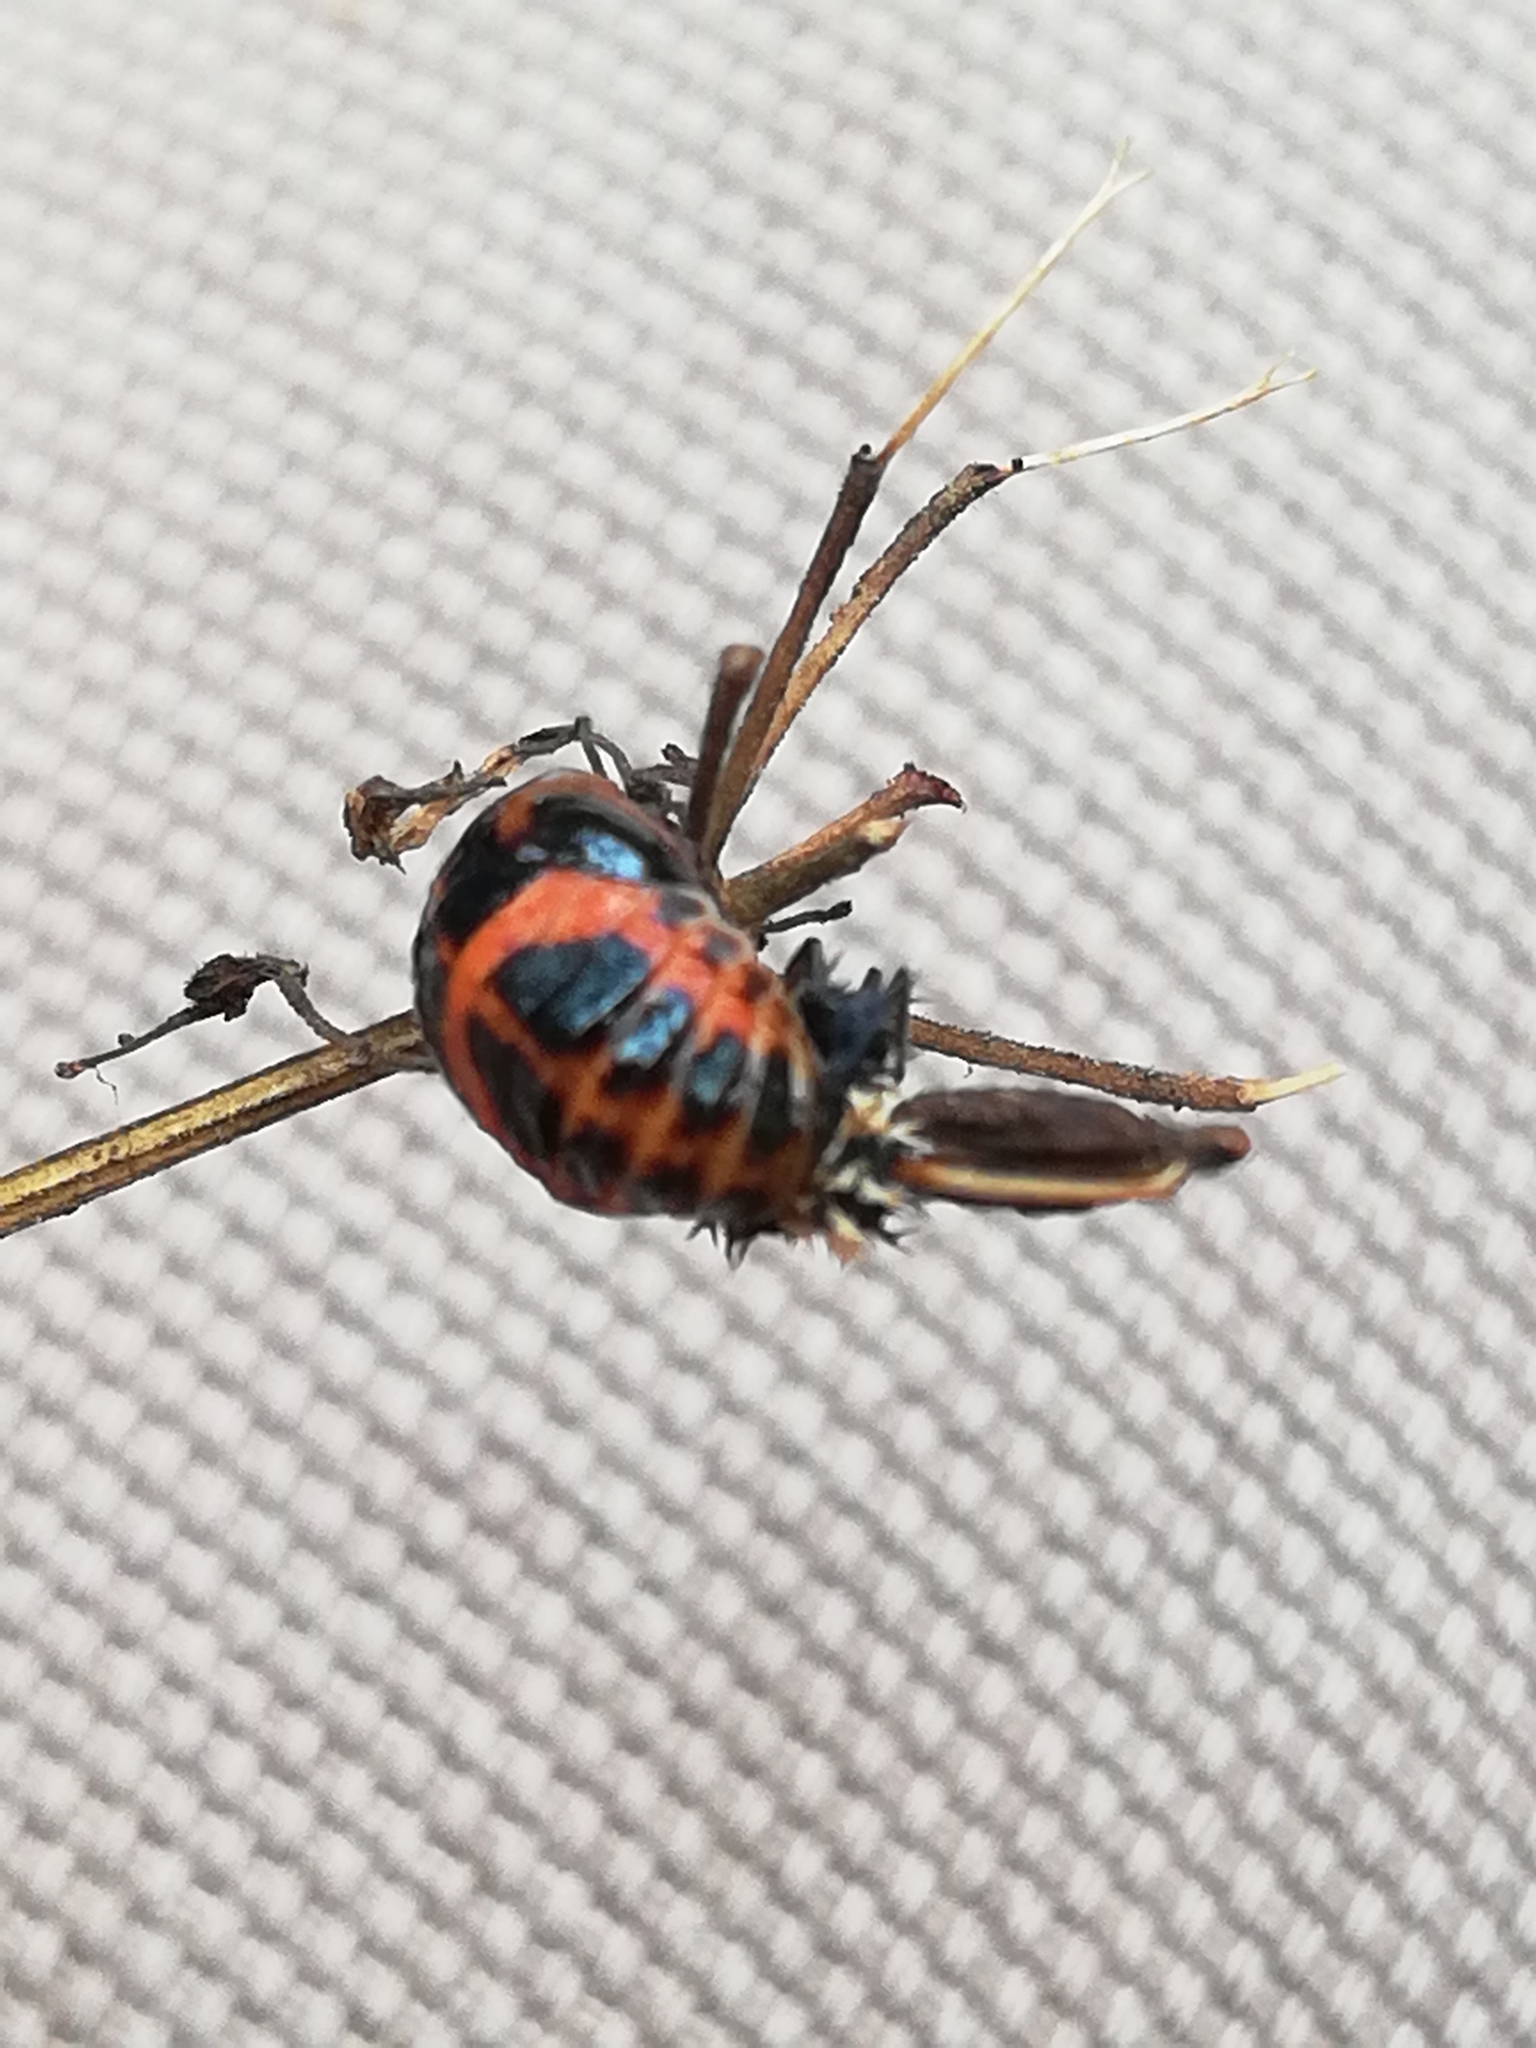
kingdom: Animalia
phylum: Arthropoda
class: Insecta
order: Coleoptera
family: Coccinellidae
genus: Harmonia
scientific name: Harmonia axyridis
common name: Harlequin ladybird
